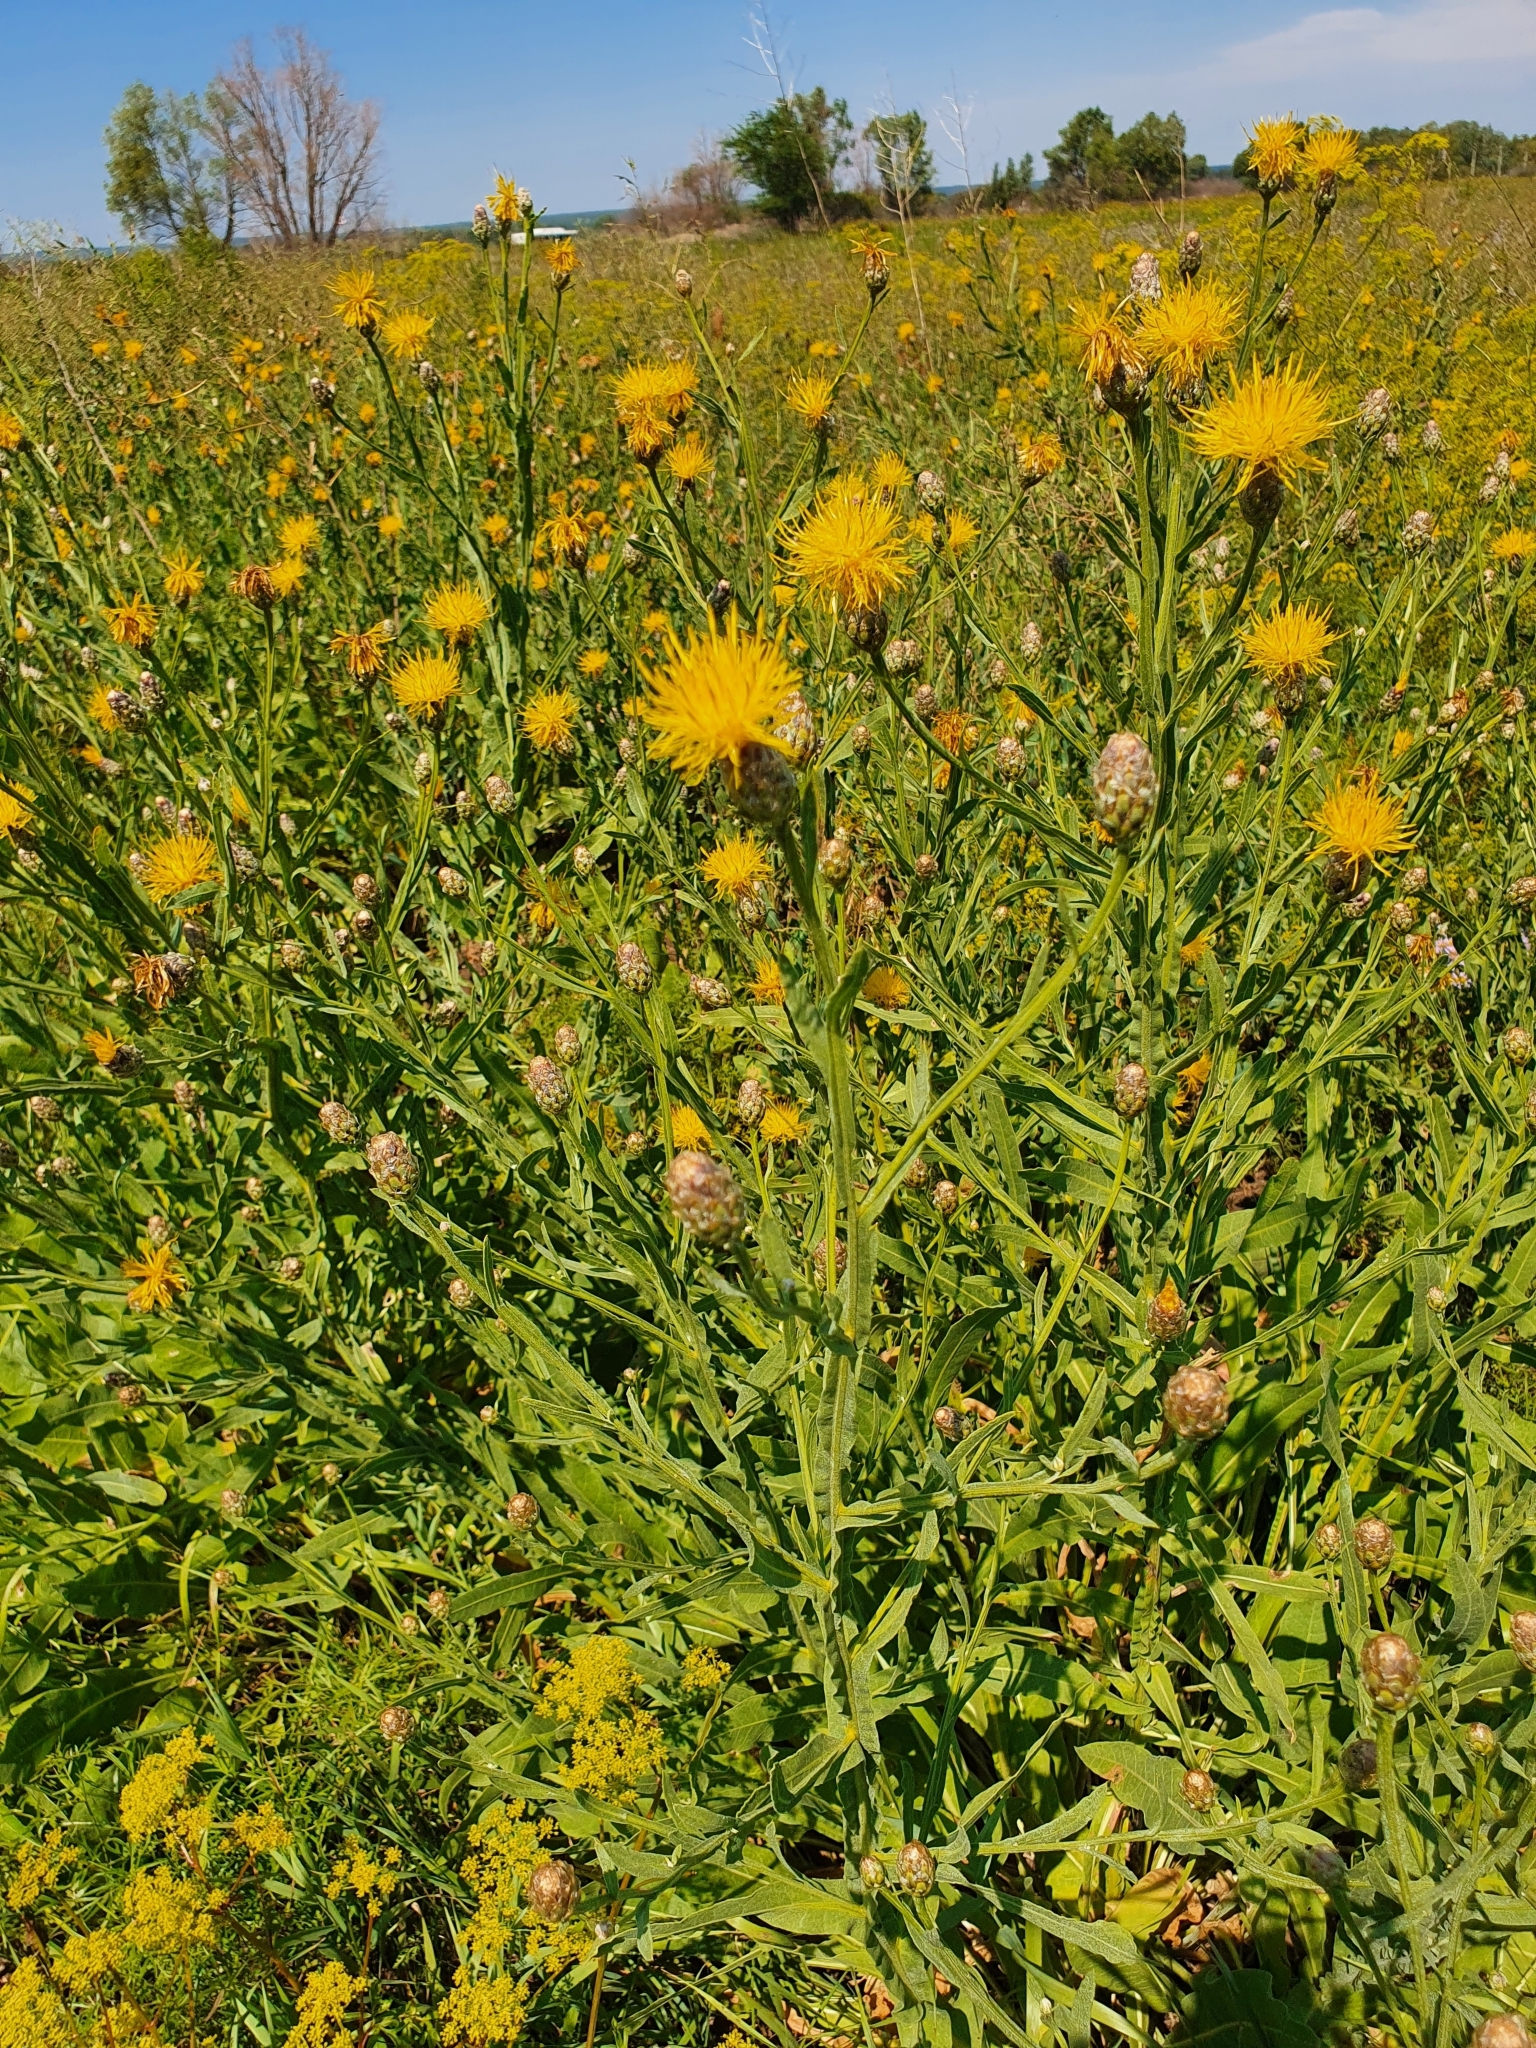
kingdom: Plantae
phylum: Tracheophyta
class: Magnoliopsida
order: Asterales
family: Asteraceae
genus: Centaurea
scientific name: Centaurea glastifolia
